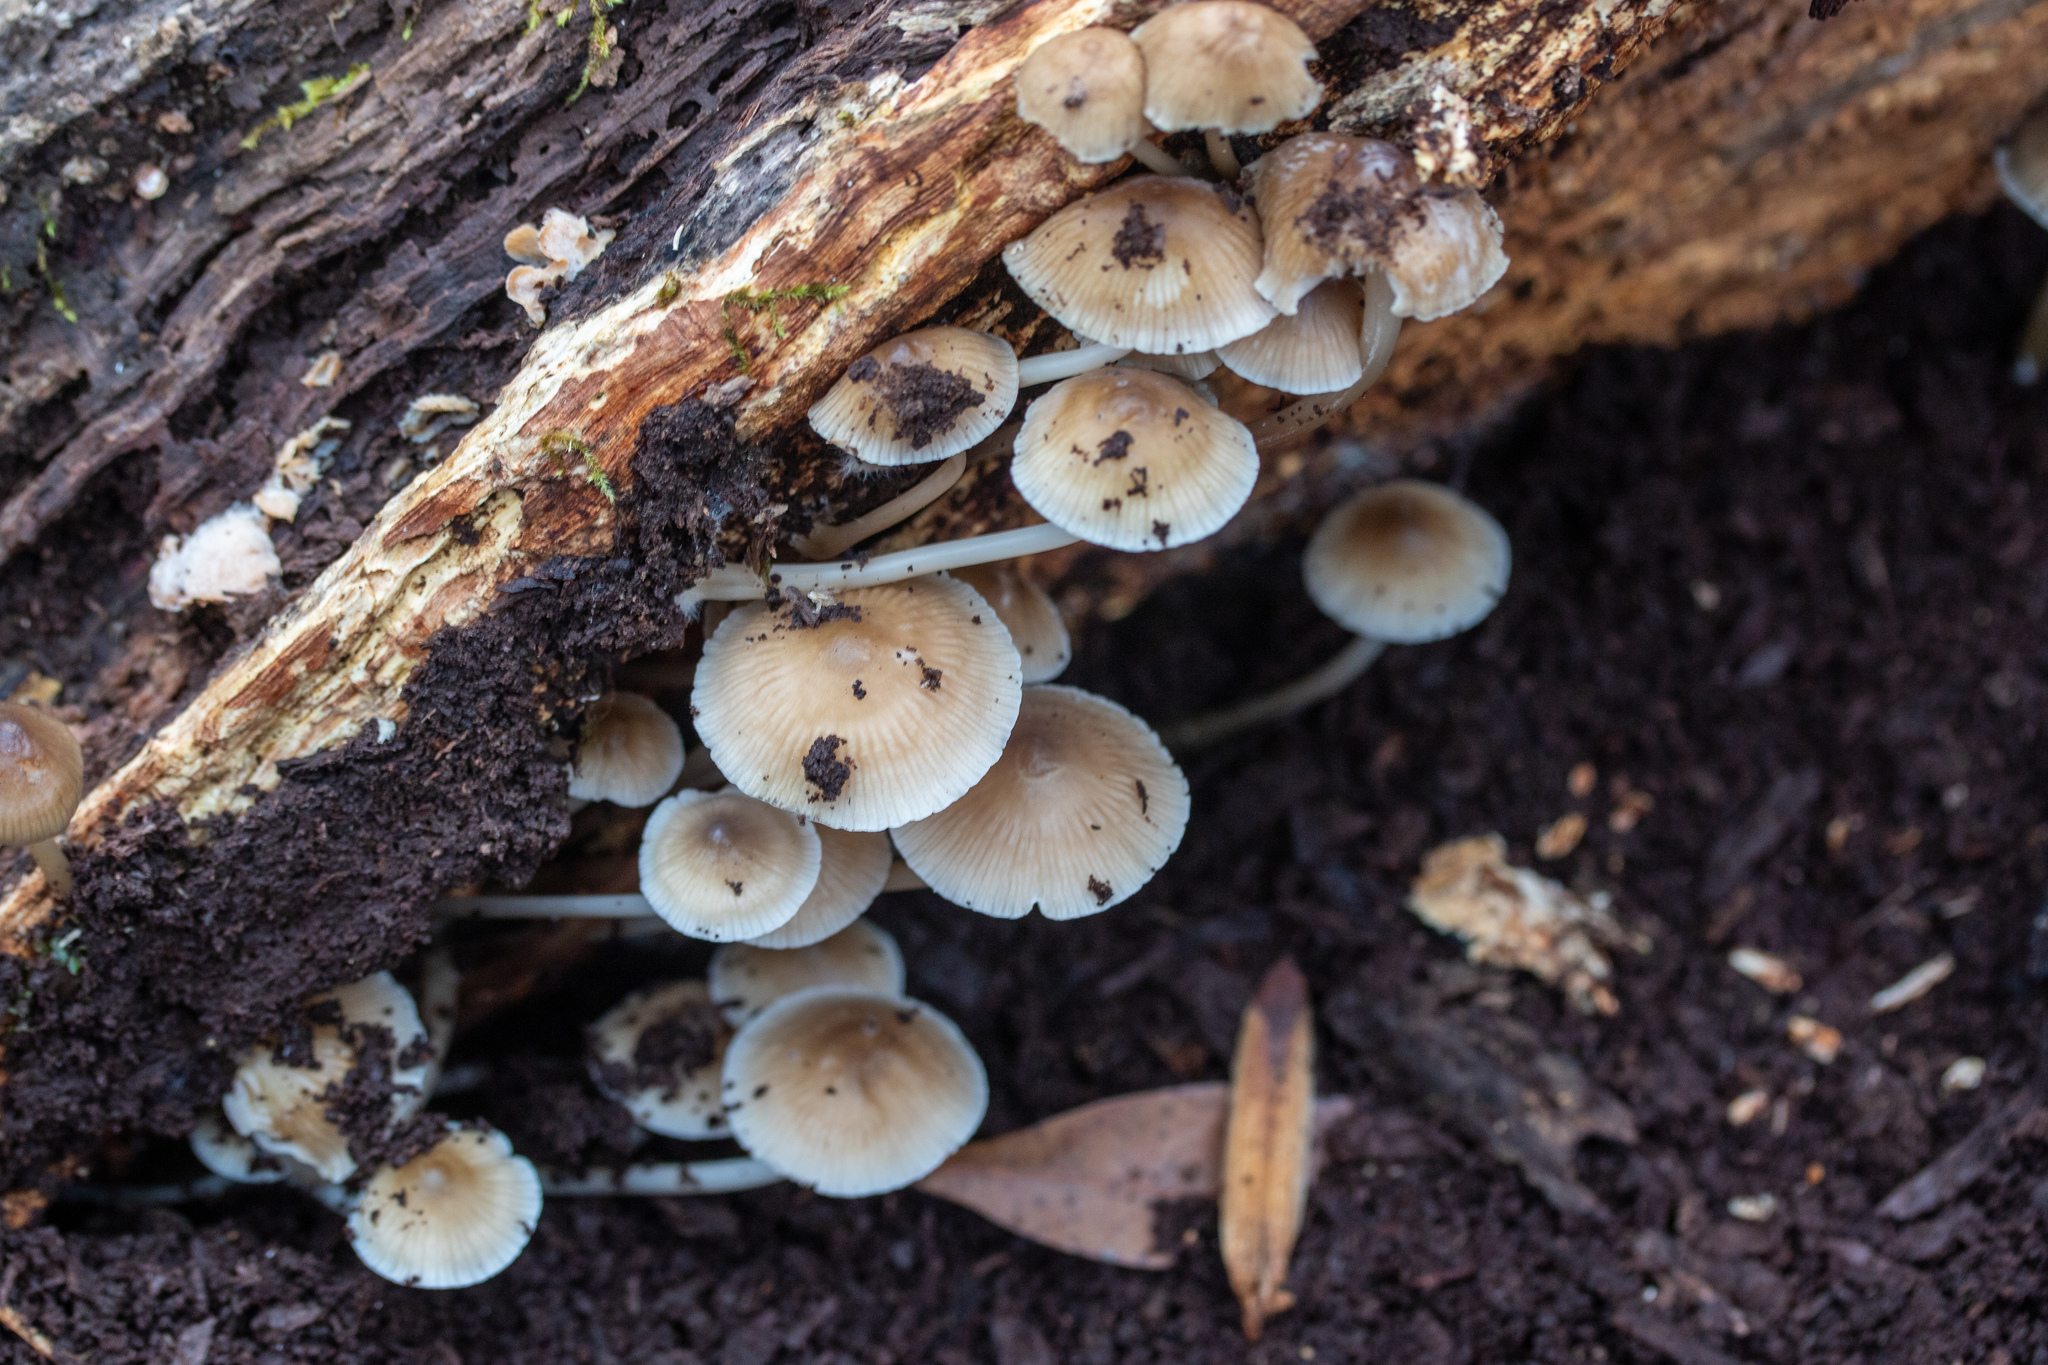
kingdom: Fungi
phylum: Basidiomycota
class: Agaricomycetes
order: Agaricales
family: Mycenaceae
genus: Mycena
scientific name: Mycena inclinata
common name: Clustered bonnet
